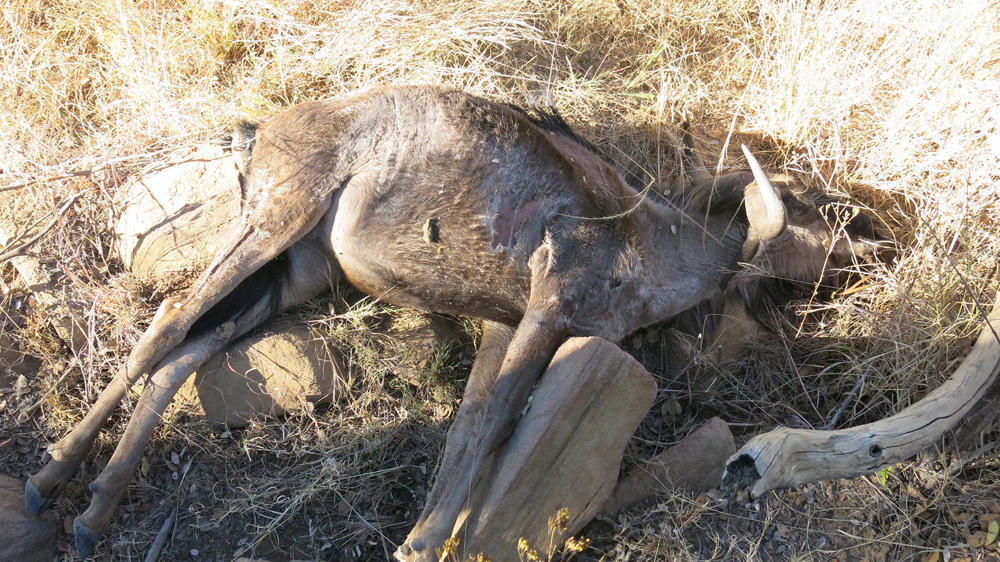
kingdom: Animalia
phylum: Chordata
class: Mammalia
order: Artiodactyla
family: Bovidae
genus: Connochaetes
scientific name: Connochaetes taurinus
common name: Blue wildebeest
